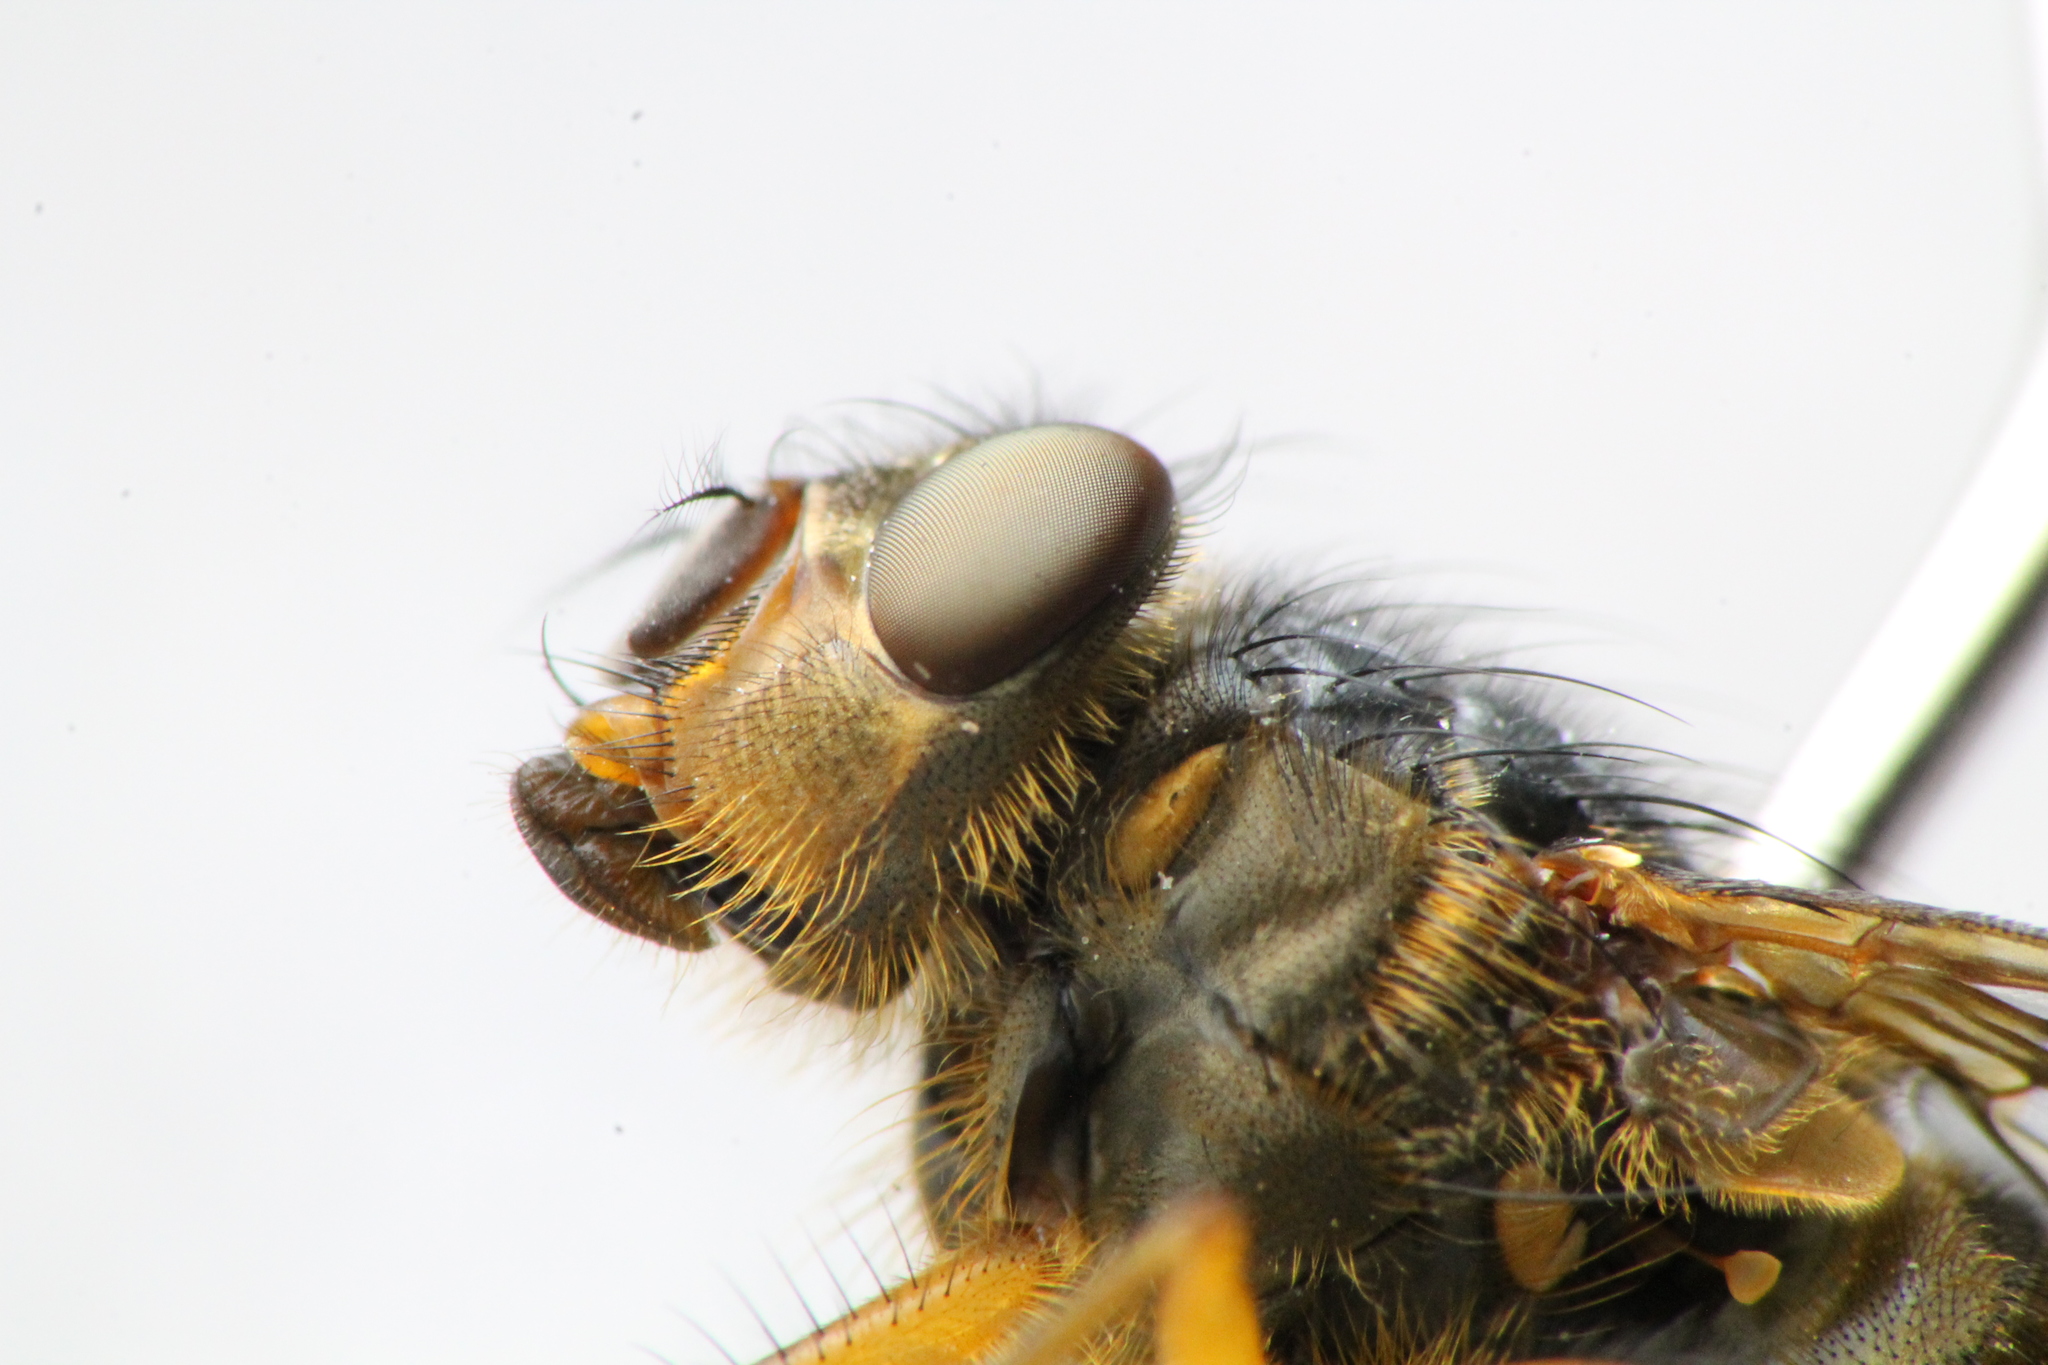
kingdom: Animalia
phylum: Arthropoda
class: Insecta
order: Diptera
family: Calliphoridae
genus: Calliphora
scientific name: Calliphora hilli
